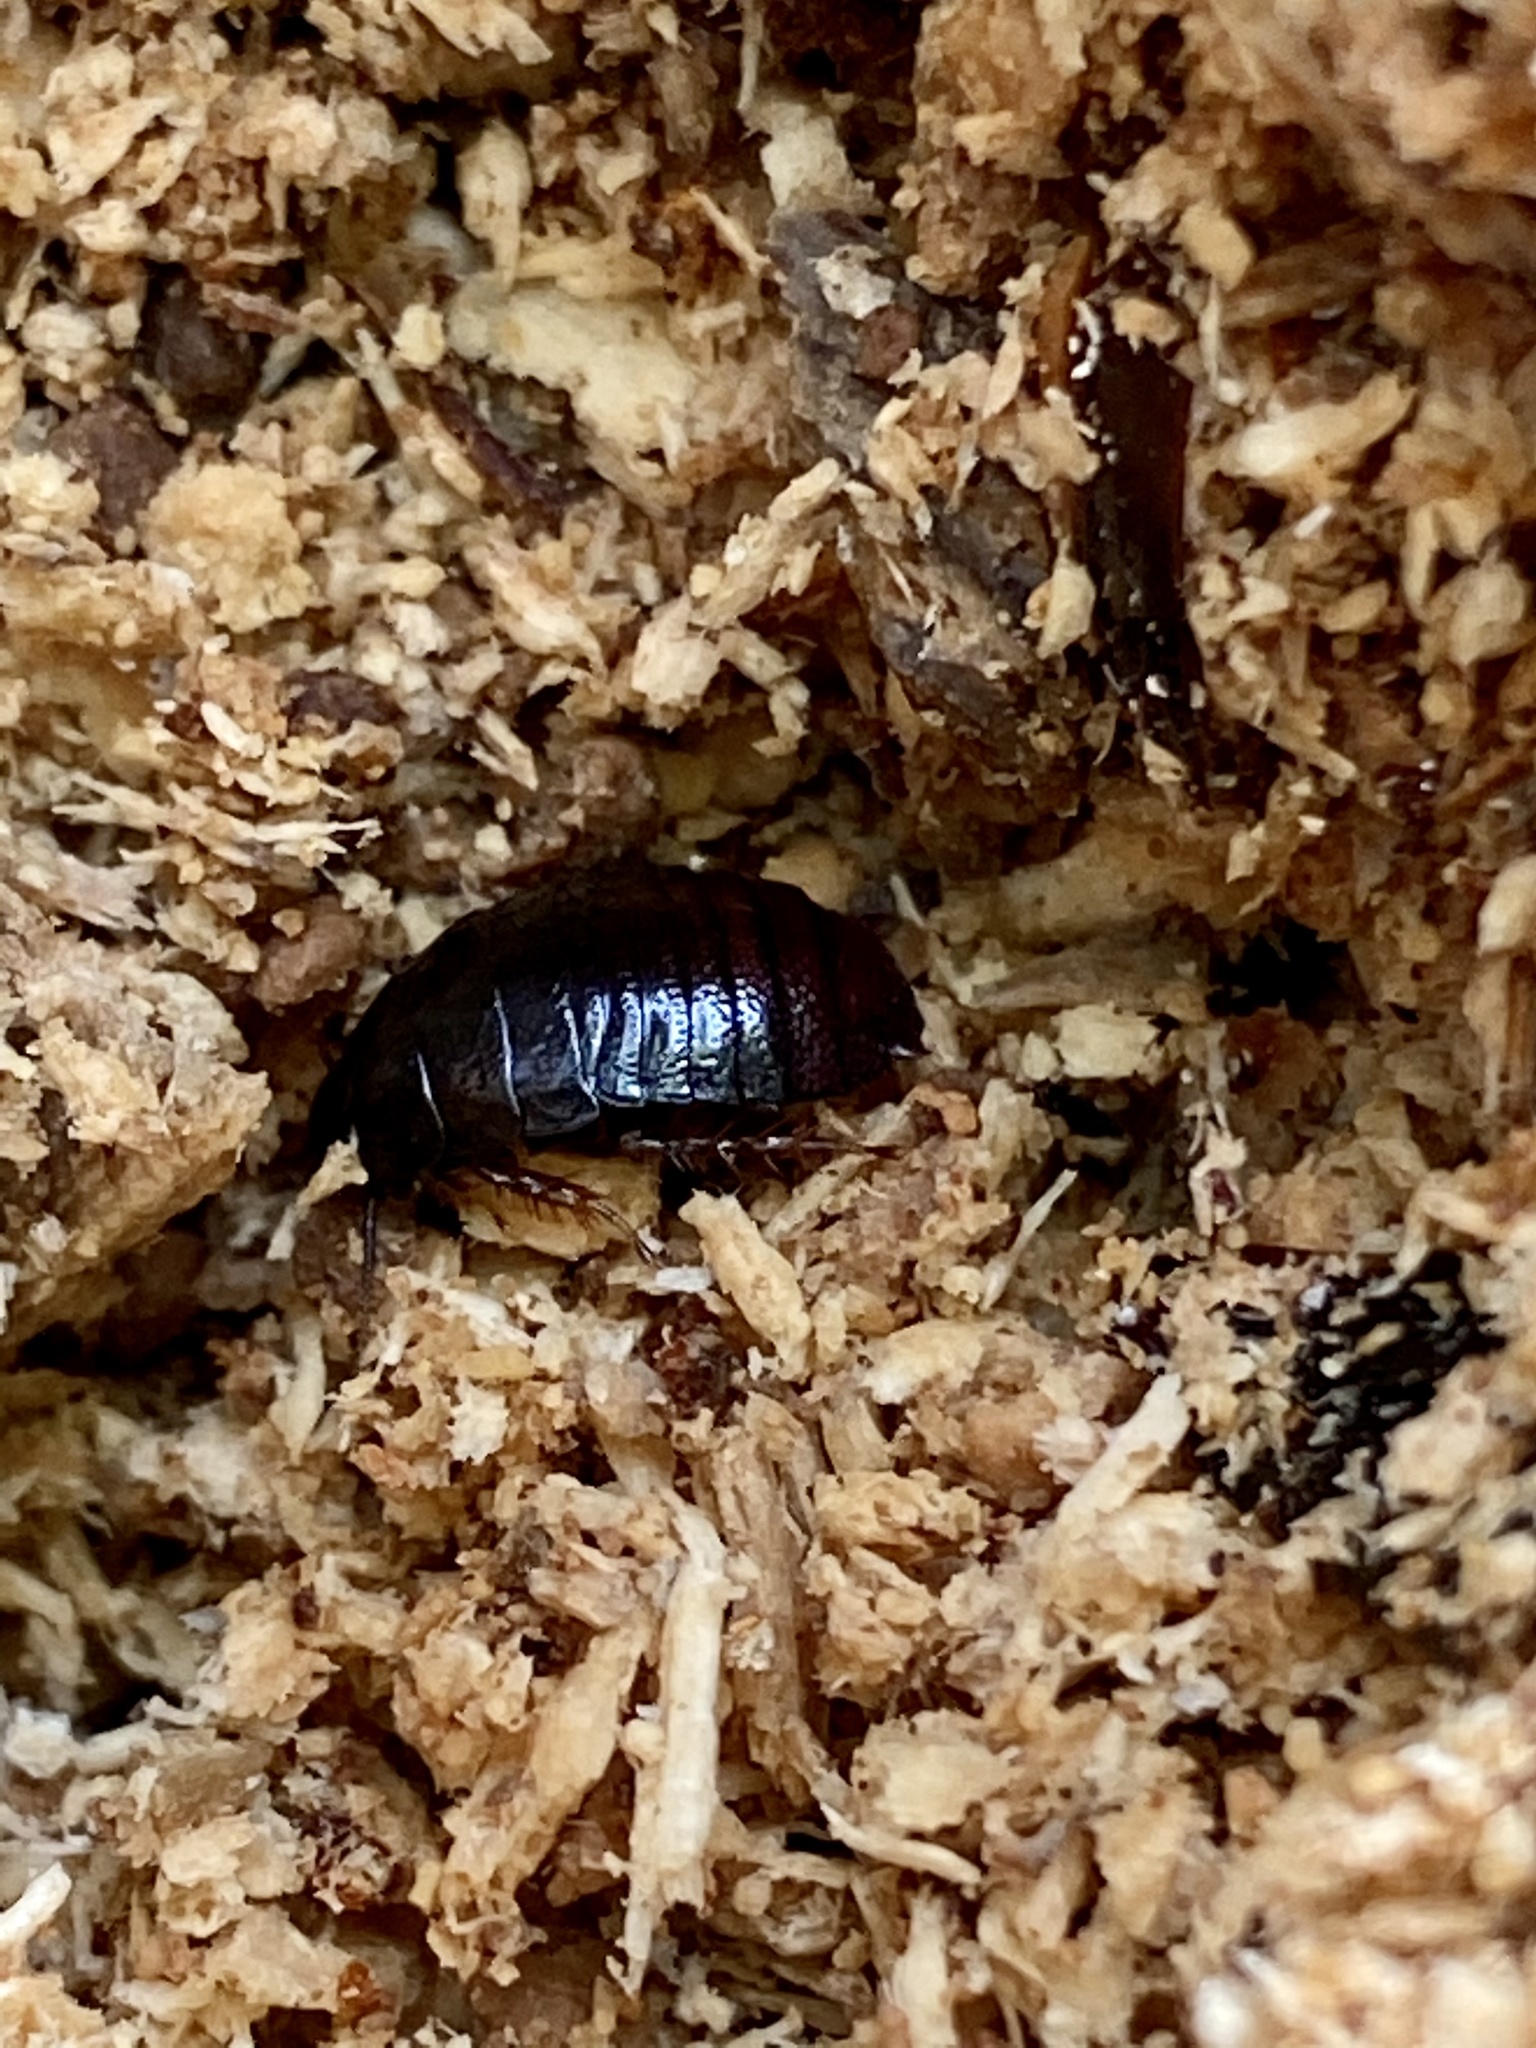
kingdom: Animalia
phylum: Arthropoda
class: Insecta
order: Blattodea
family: Blaberidae
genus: Panesthia
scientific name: Panesthia angustipennis
